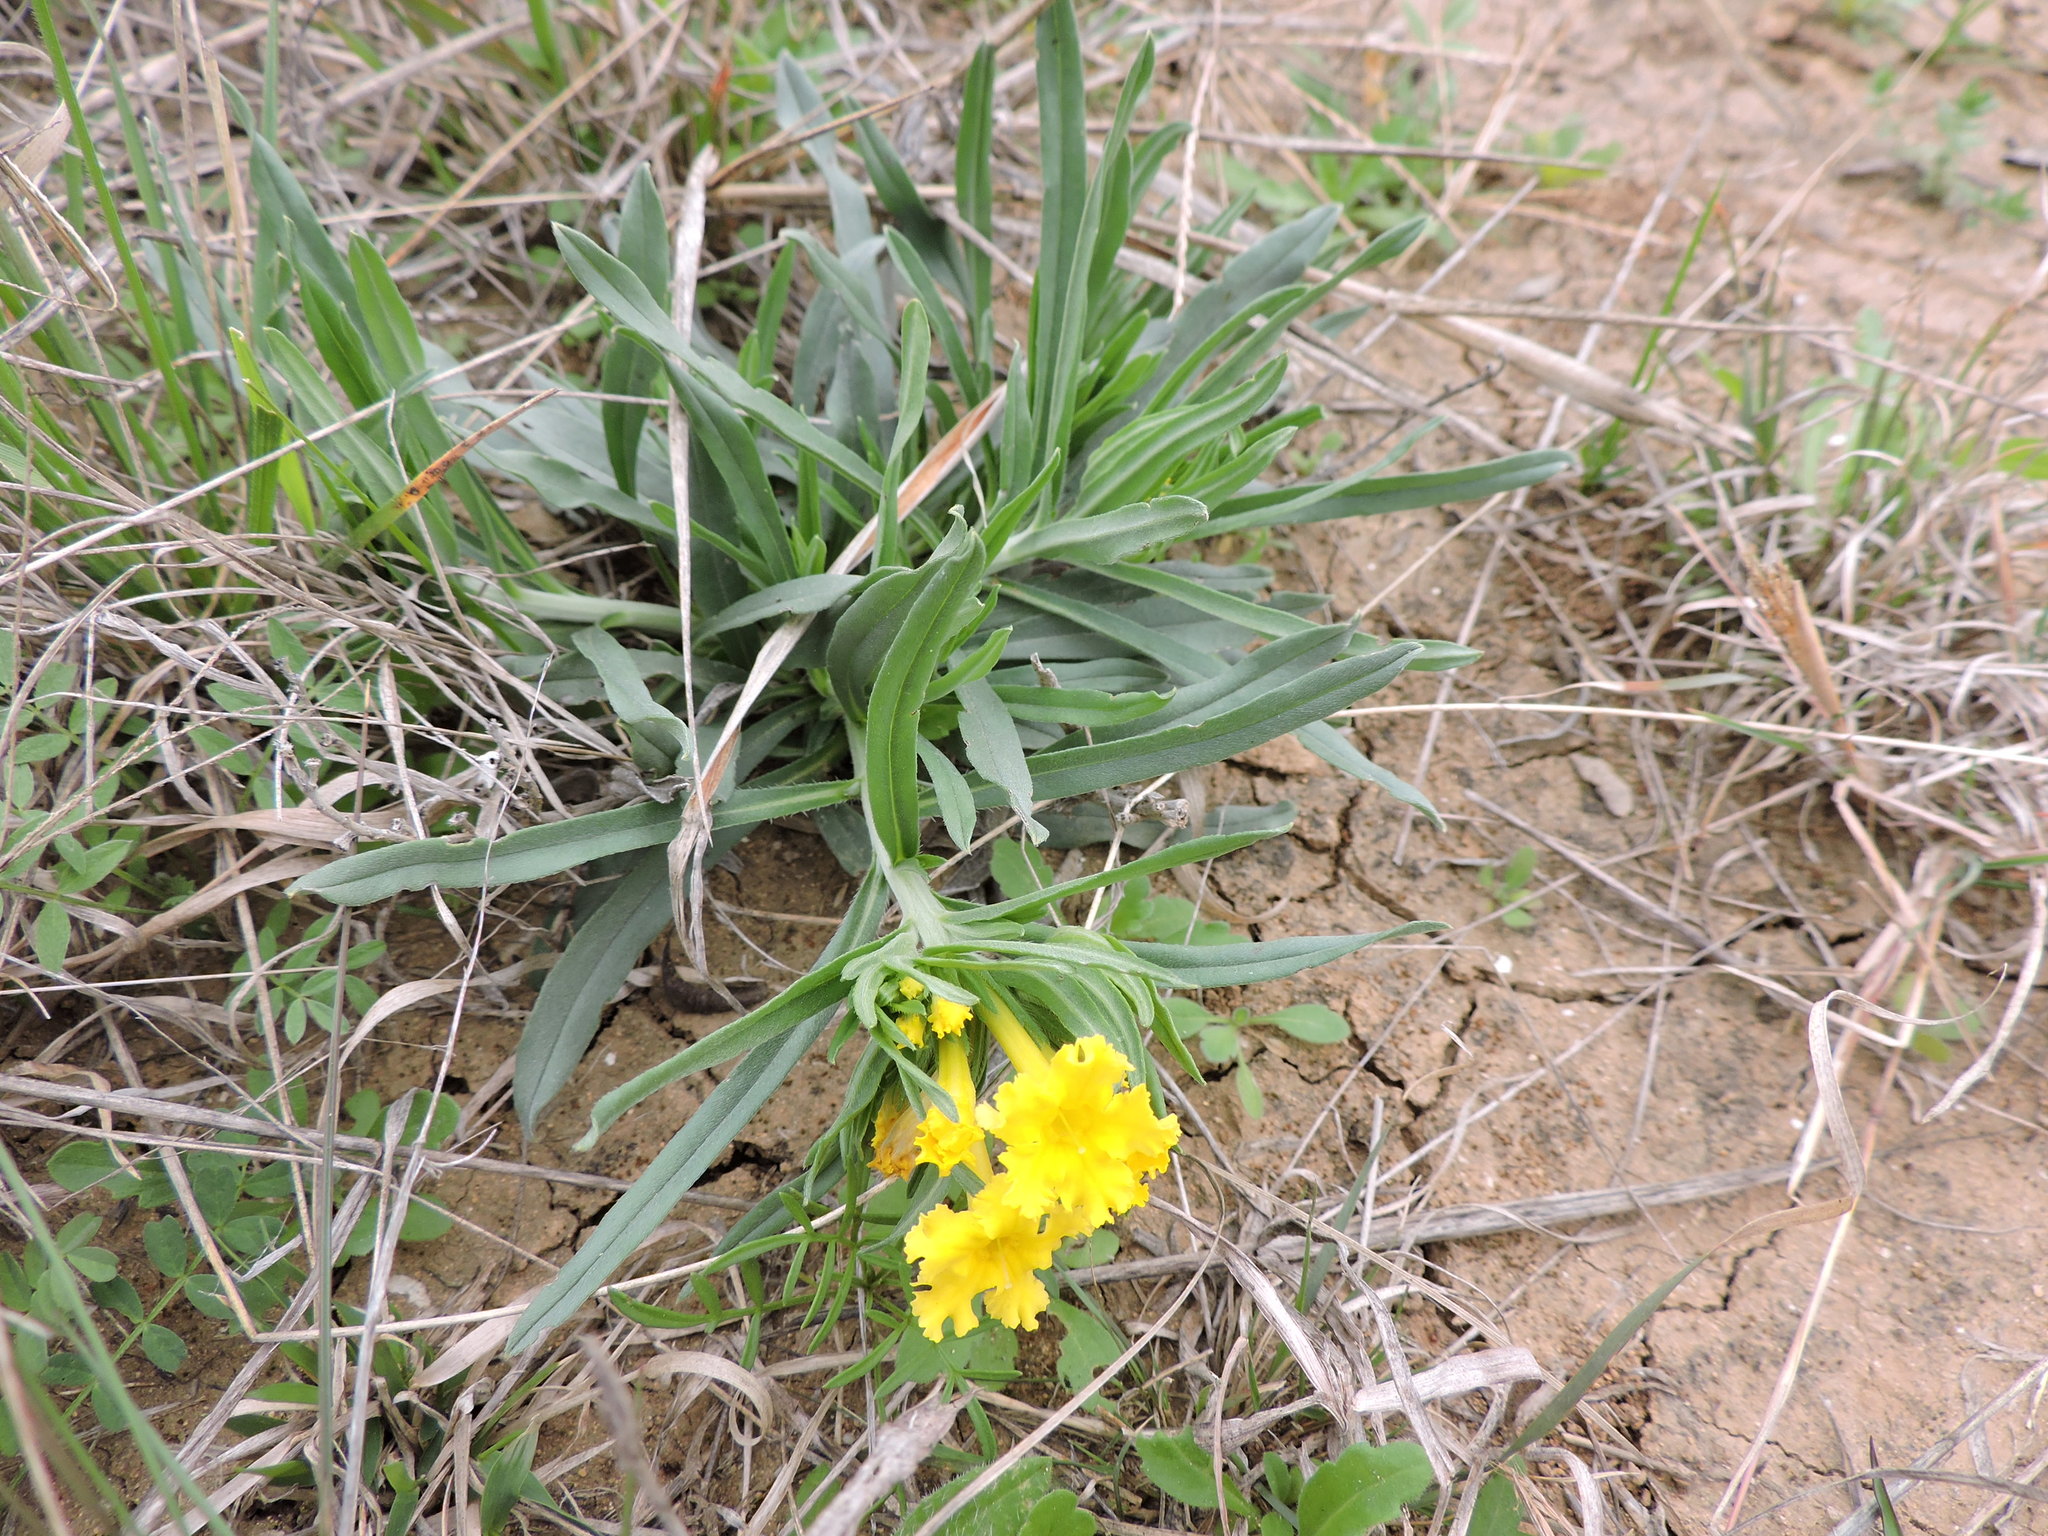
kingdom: Plantae
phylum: Tracheophyta
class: Magnoliopsida
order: Boraginales
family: Boraginaceae
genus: Lithospermum
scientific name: Lithospermum incisum
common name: Fringed gromwell
